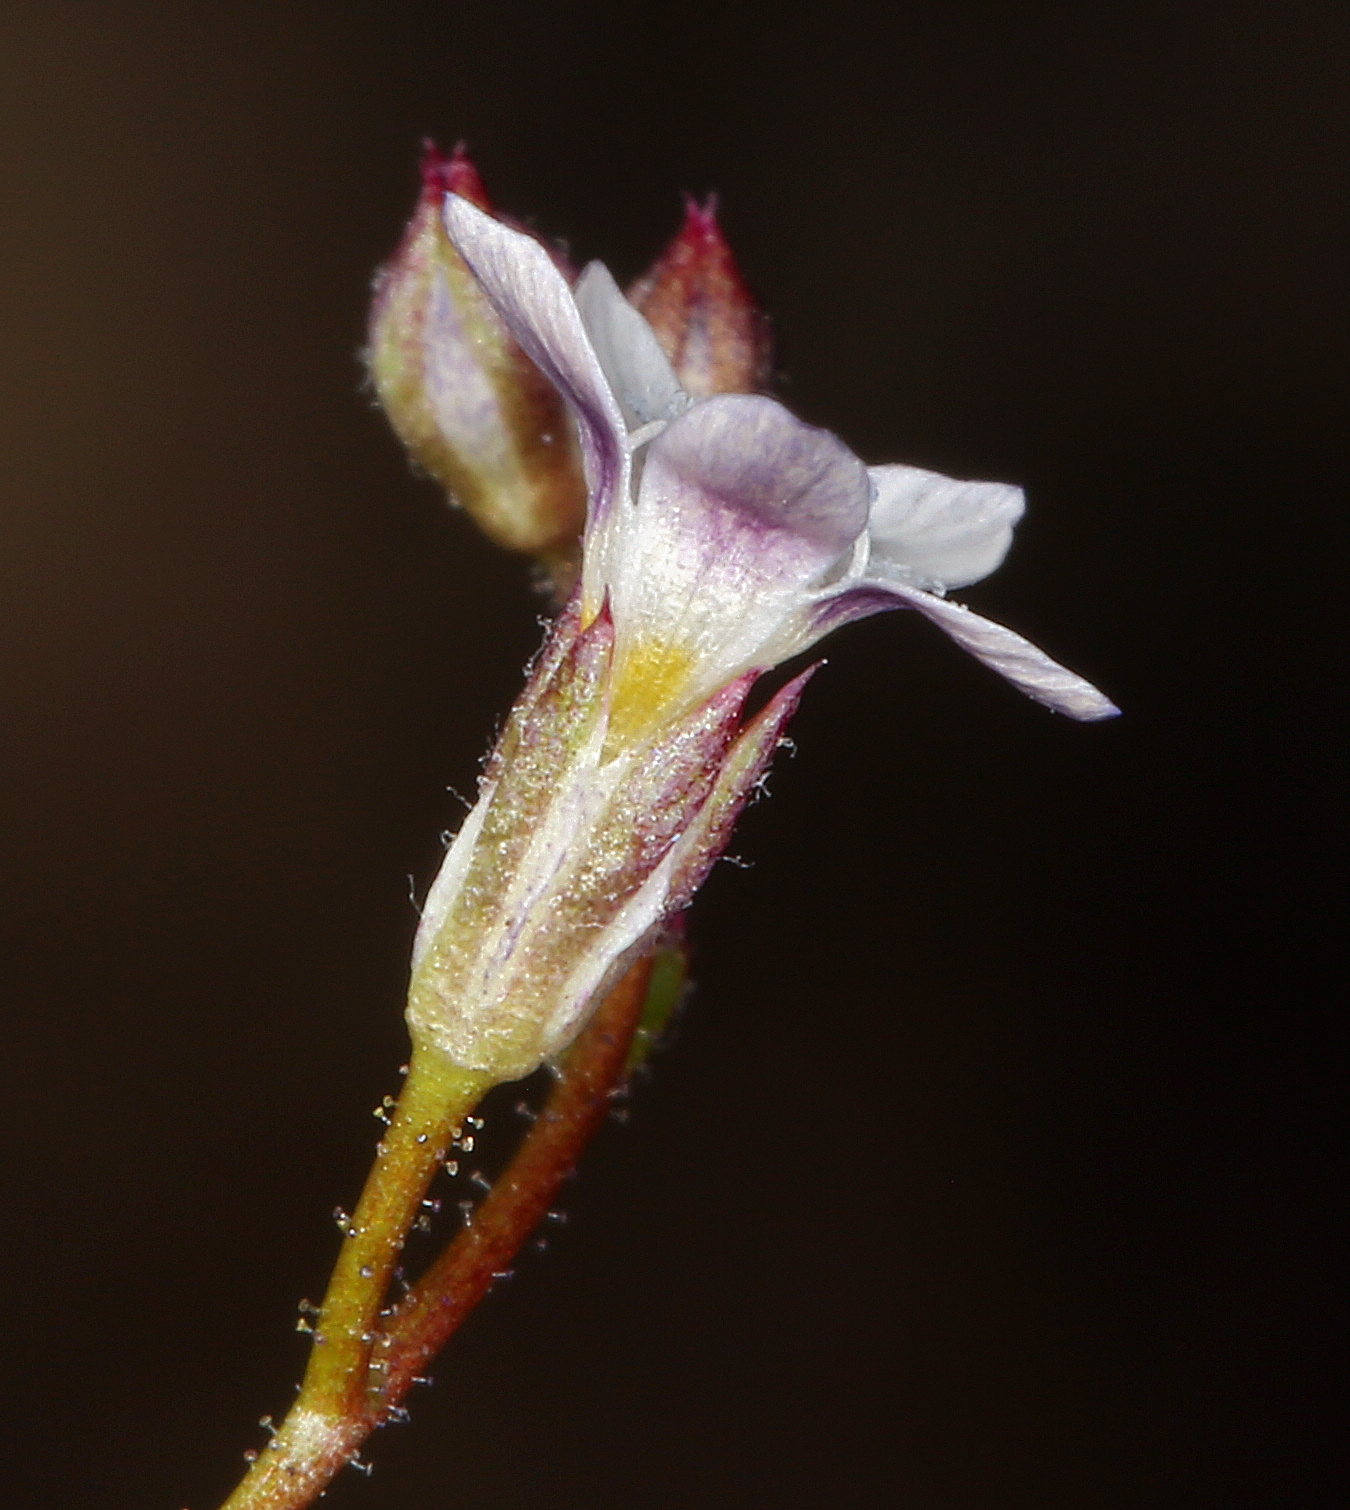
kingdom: Plantae
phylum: Tracheophyta
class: Magnoliopsida
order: Ericales
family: Polemoniaceae
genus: Gilia
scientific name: Gilia clokeyi
